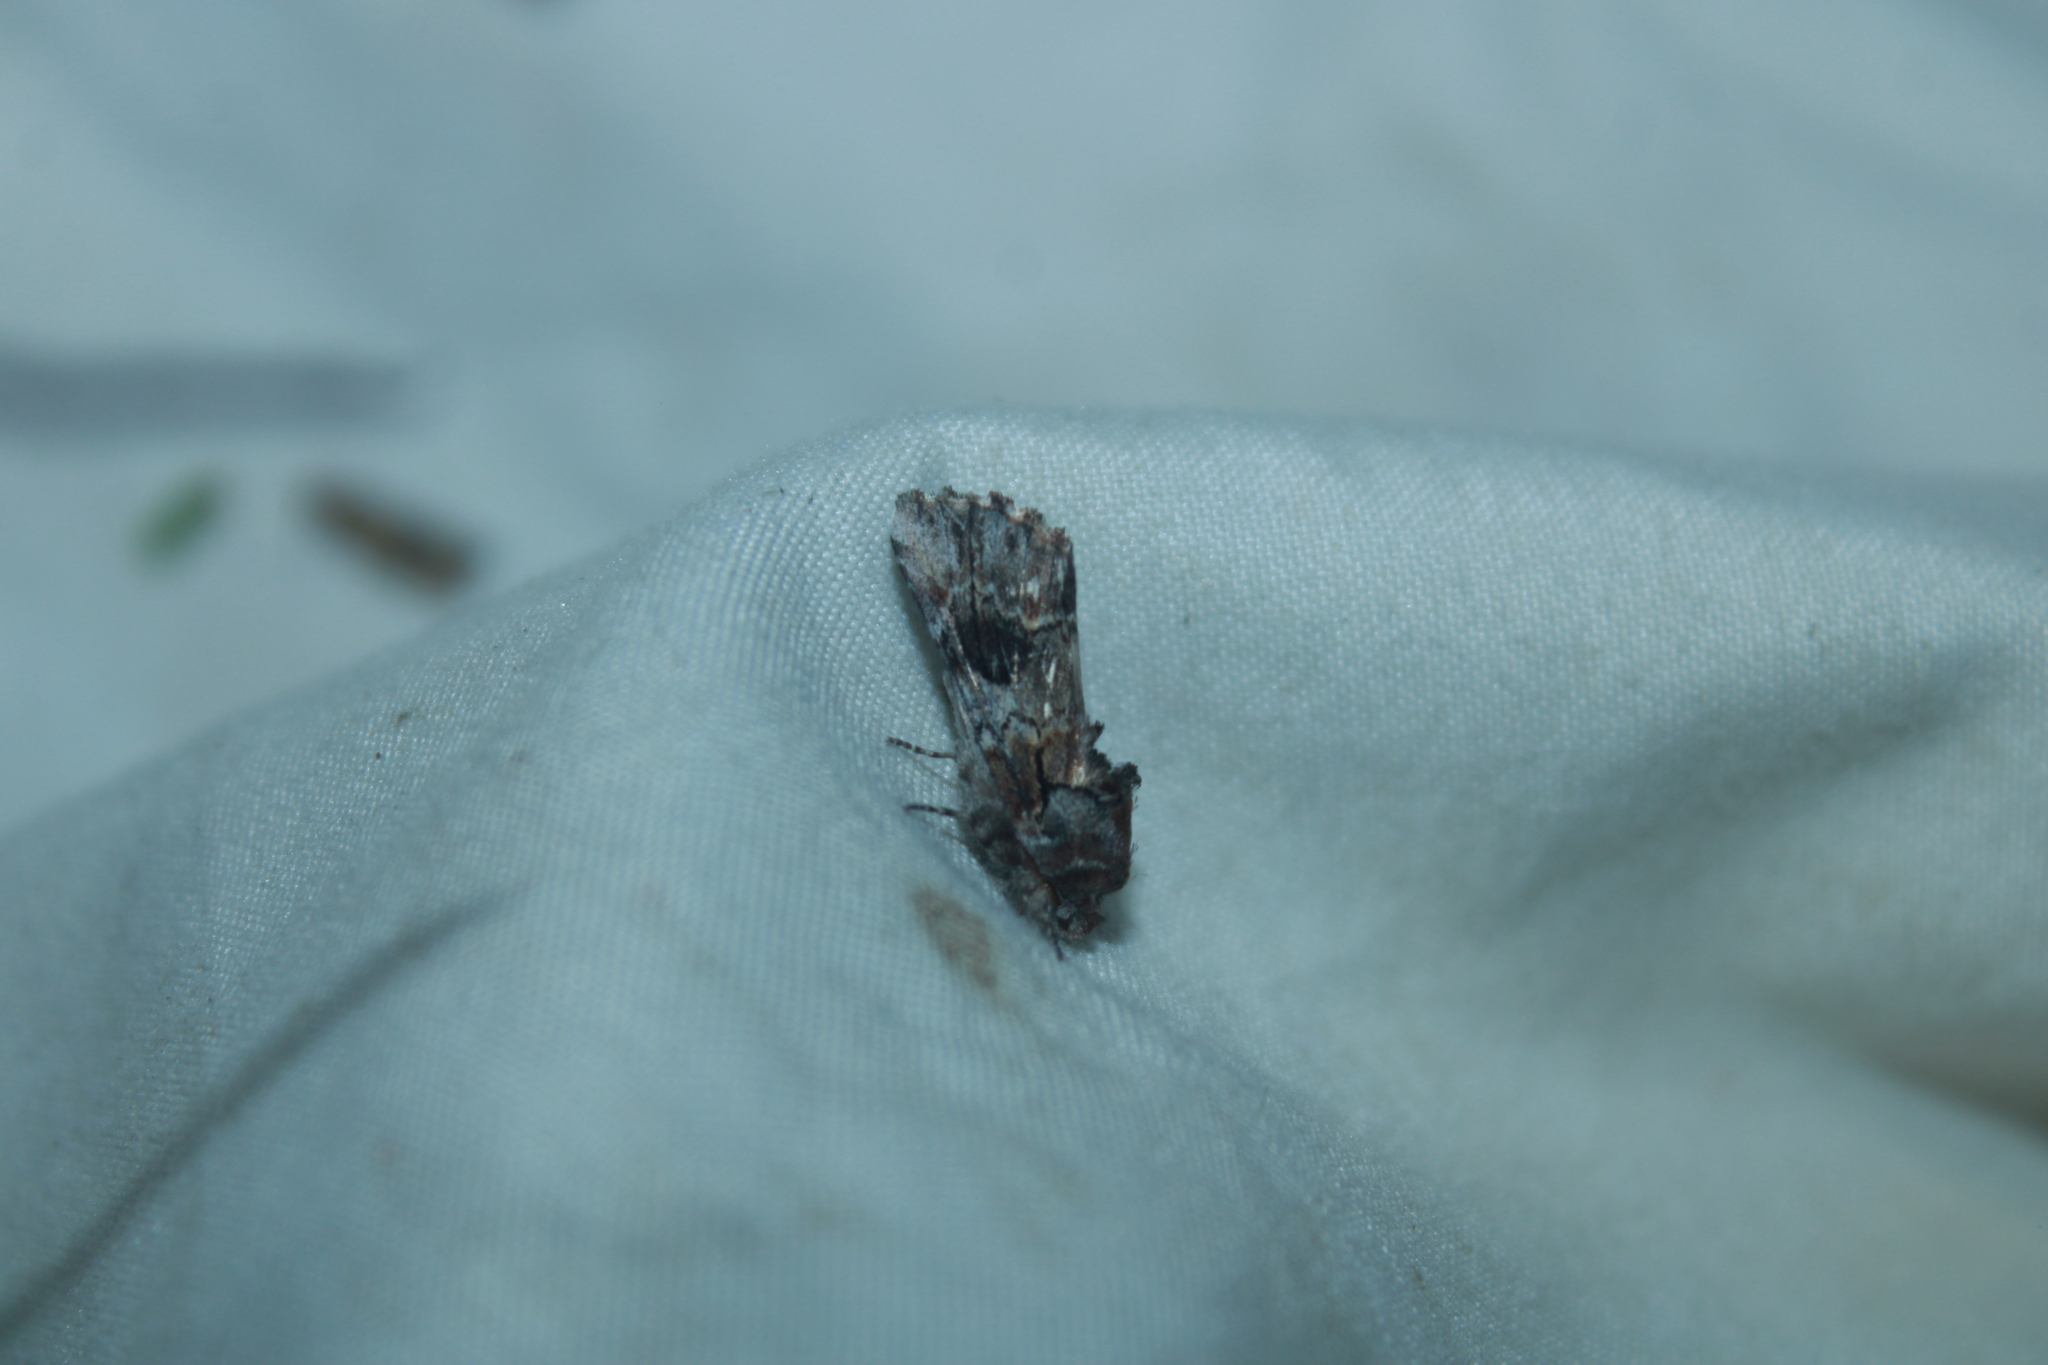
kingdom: Animalia
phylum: Arthropoda
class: Insecta
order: Lepidoptera
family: Notodontidae
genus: Schizura
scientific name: Schizura
